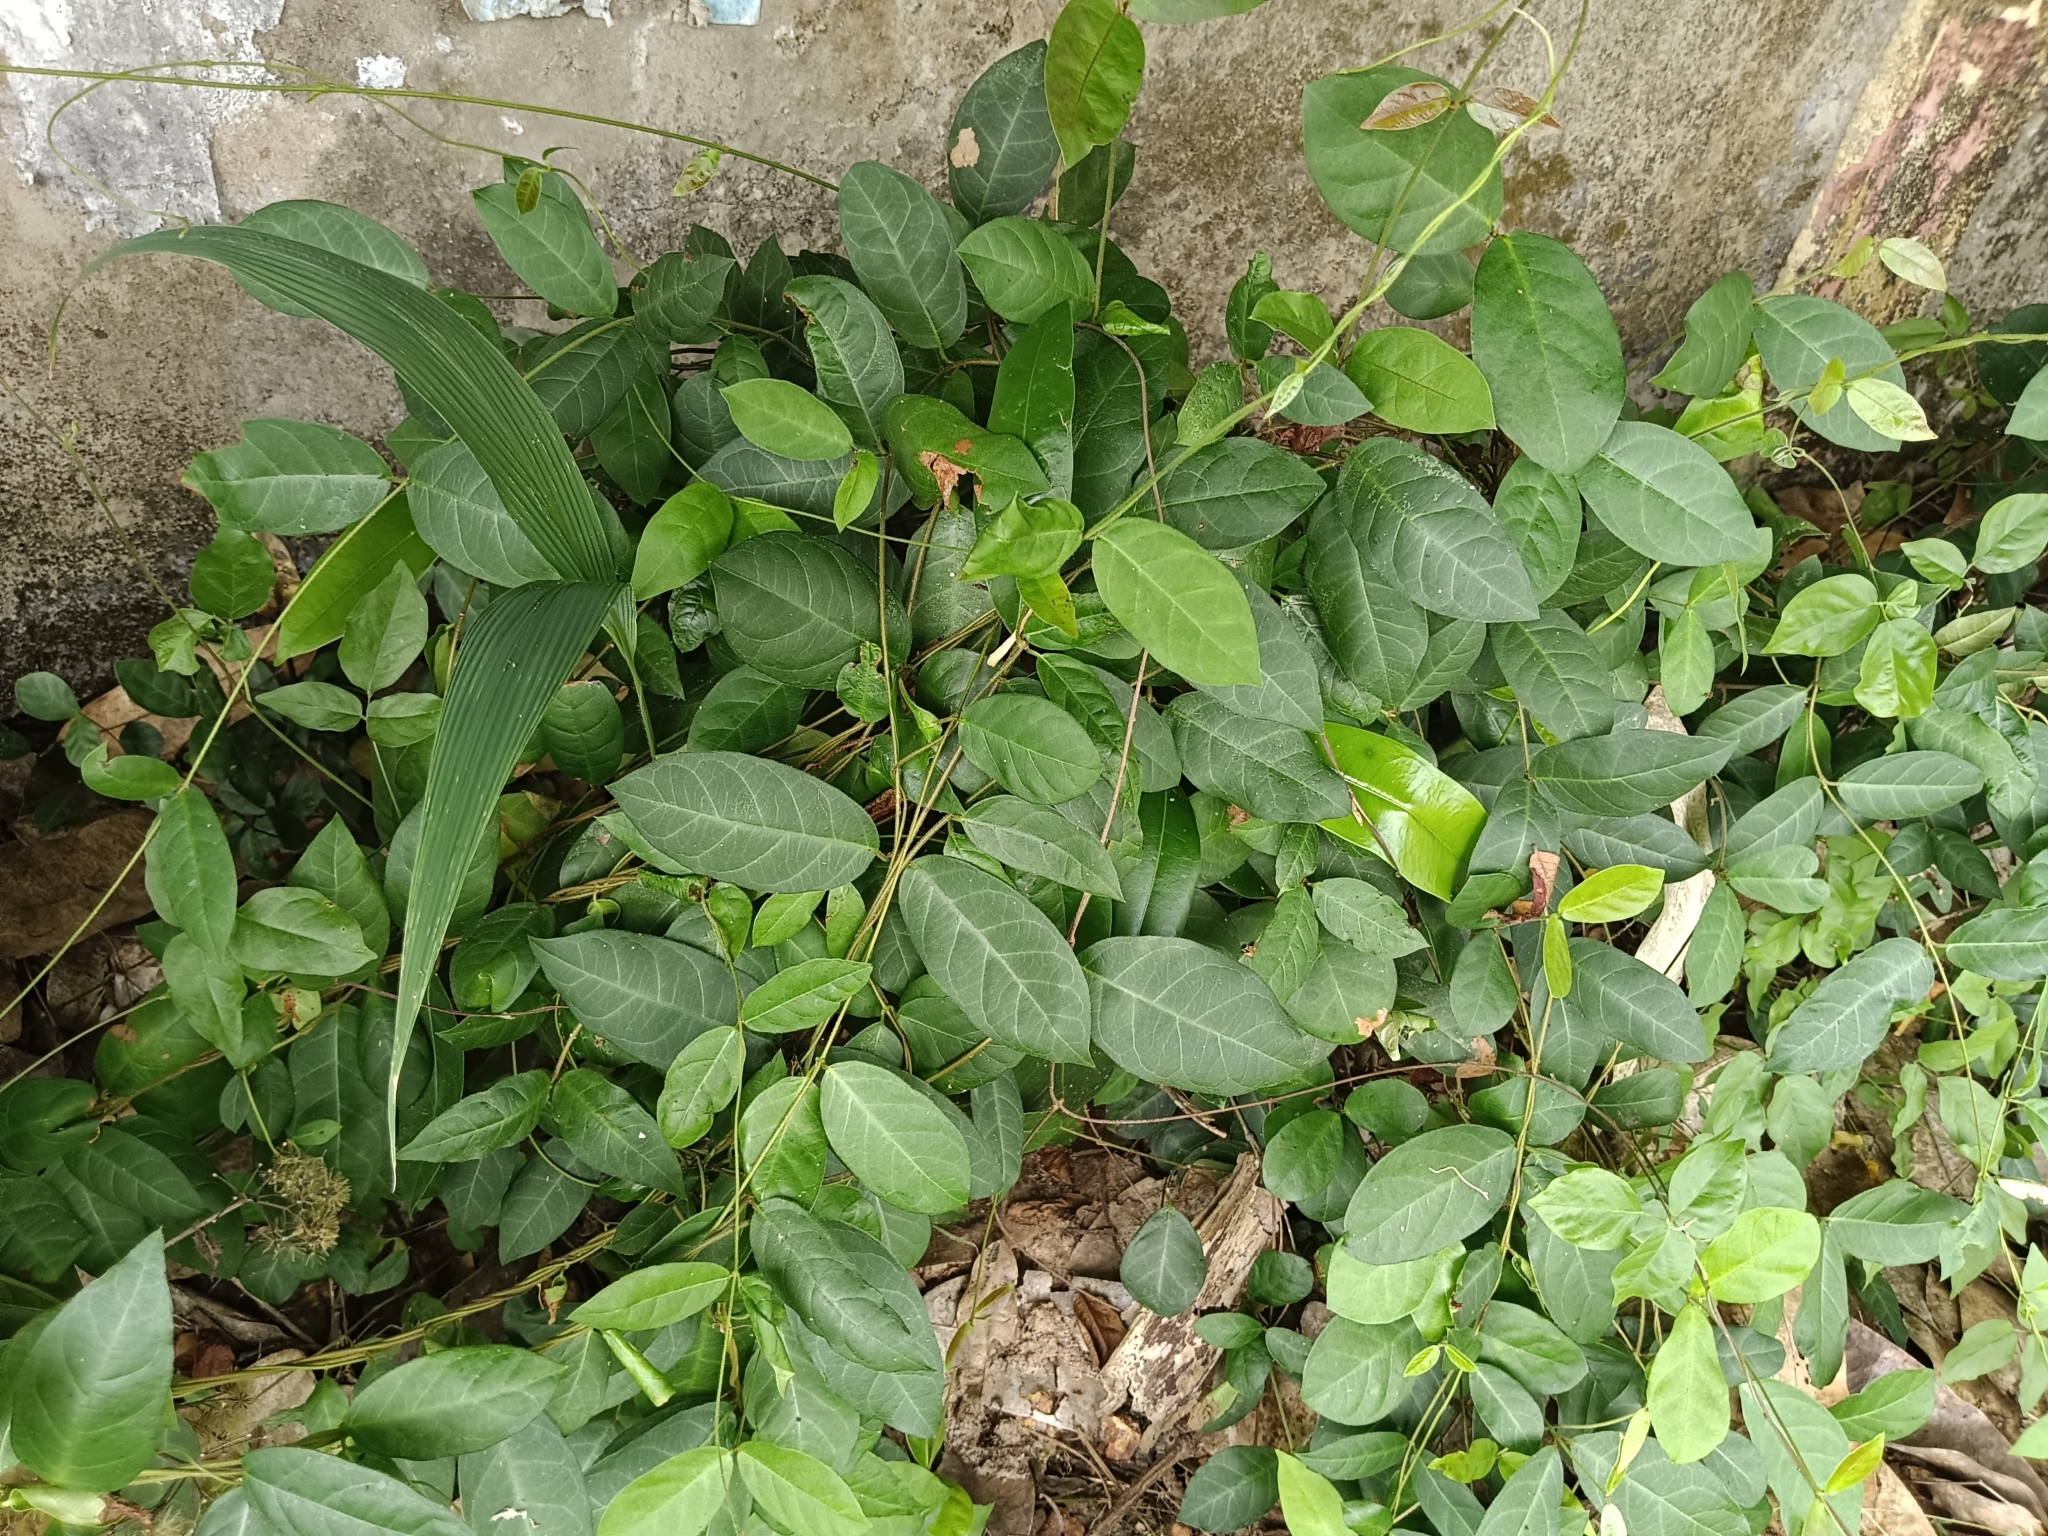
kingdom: Plantae
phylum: Tracheophyta
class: Magnoliopsida
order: Gentianales
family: Apocynaceae
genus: Ichnocarpus
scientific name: Ichnocarpus frutescens
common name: Ichnocarpus
